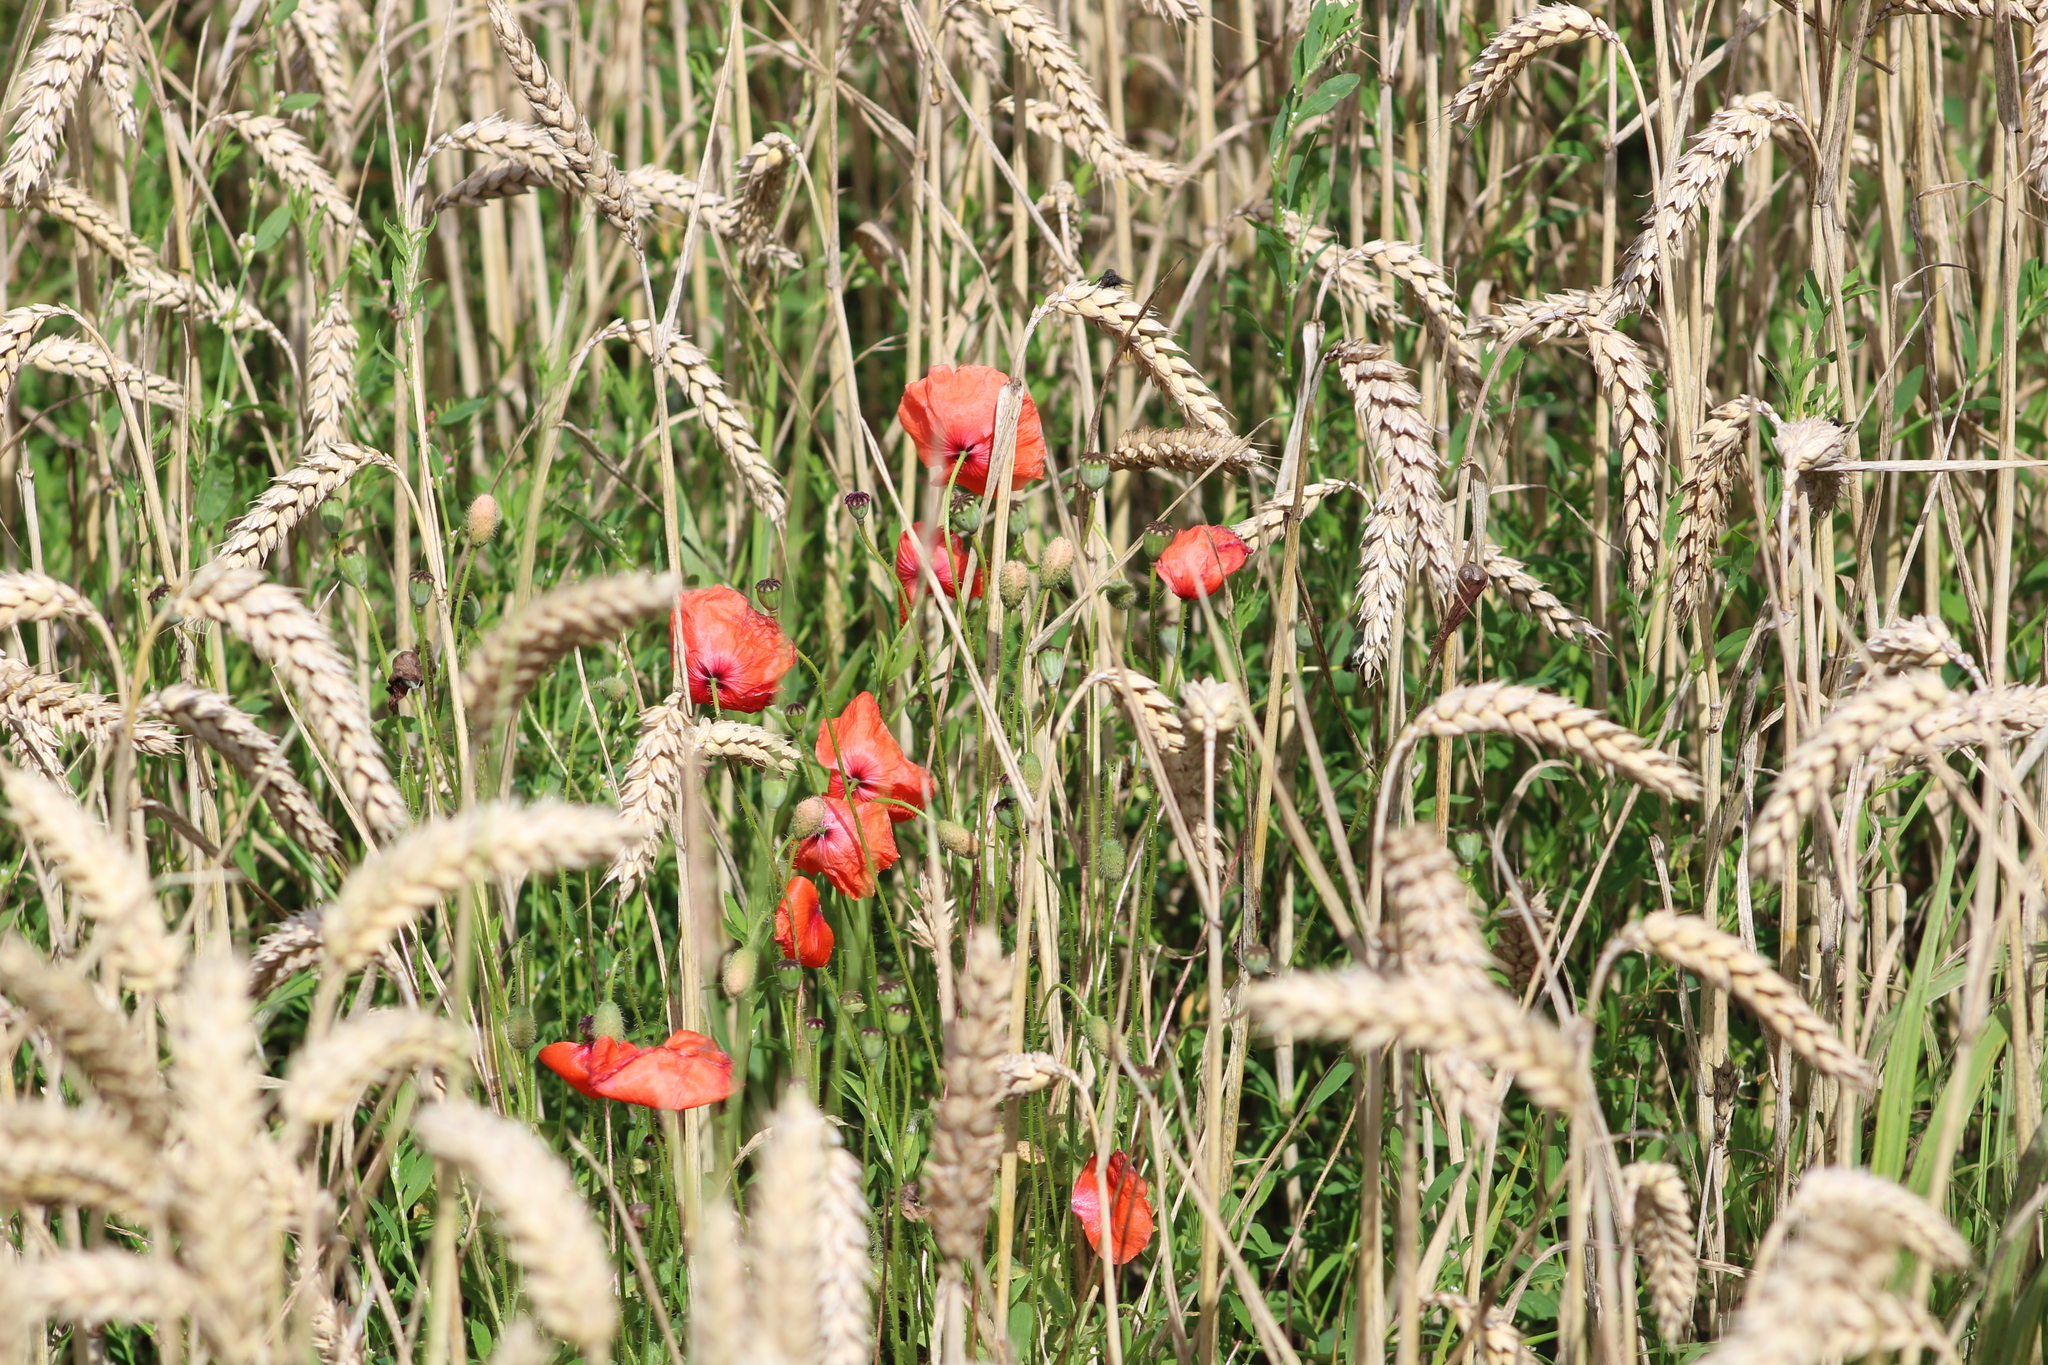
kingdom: Plantae
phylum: Tracheophyta
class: Magnoliopsida
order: Ranunculales
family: Papaveraceae
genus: Papaver
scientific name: Papaver rhoeas
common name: Corn poppy
